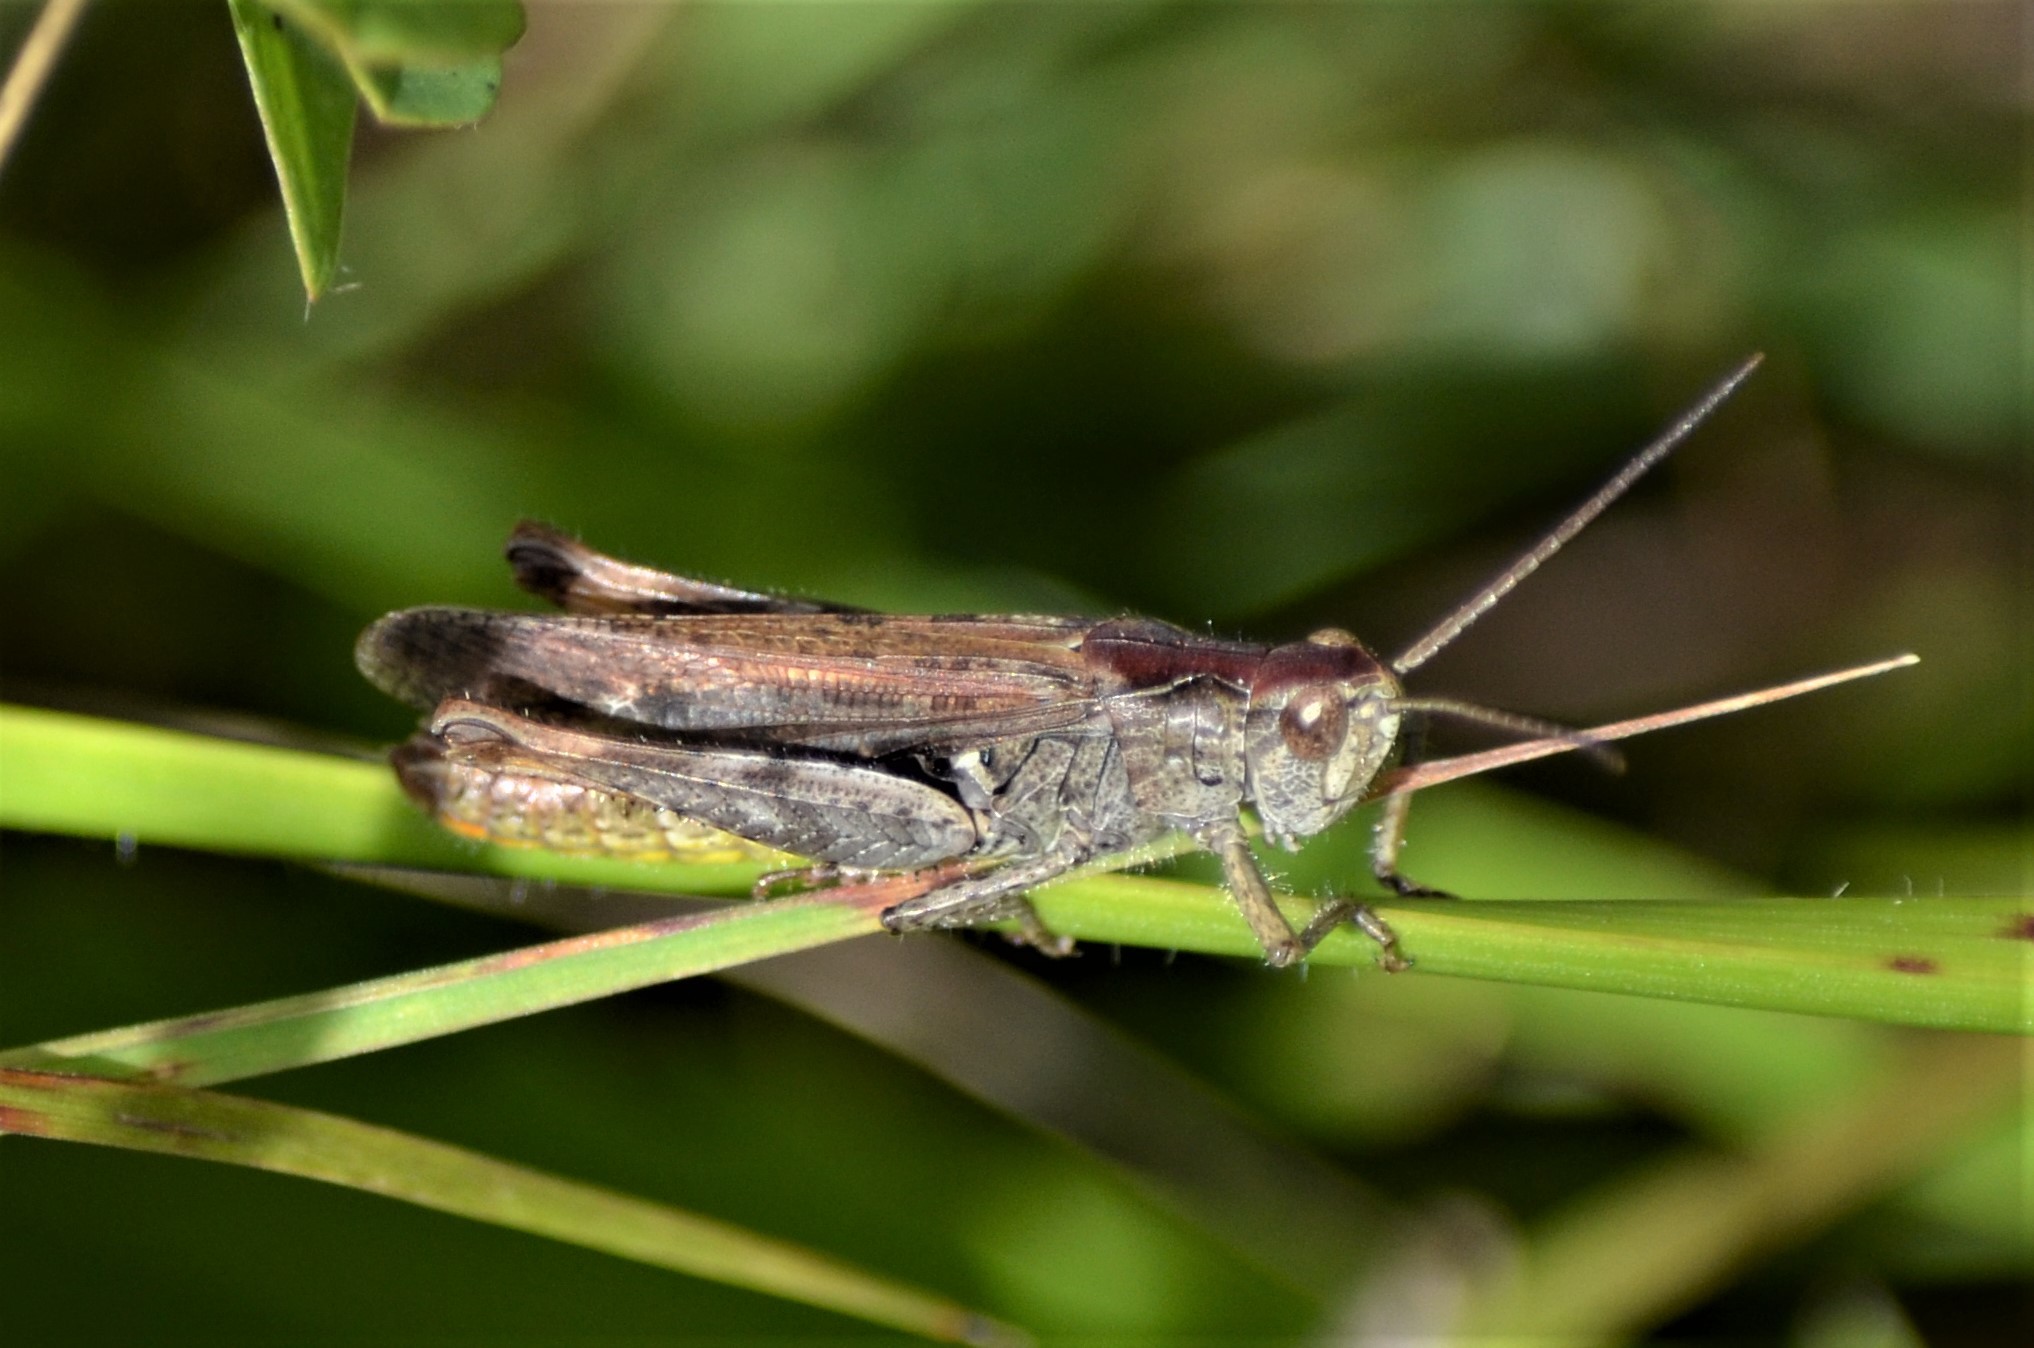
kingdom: Animalia
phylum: Arthropoda
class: Insecta
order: Orthoptera
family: Acrididae
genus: Chorthippus
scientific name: Chorthippus biguttulus
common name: Bow-winged grasshopper
